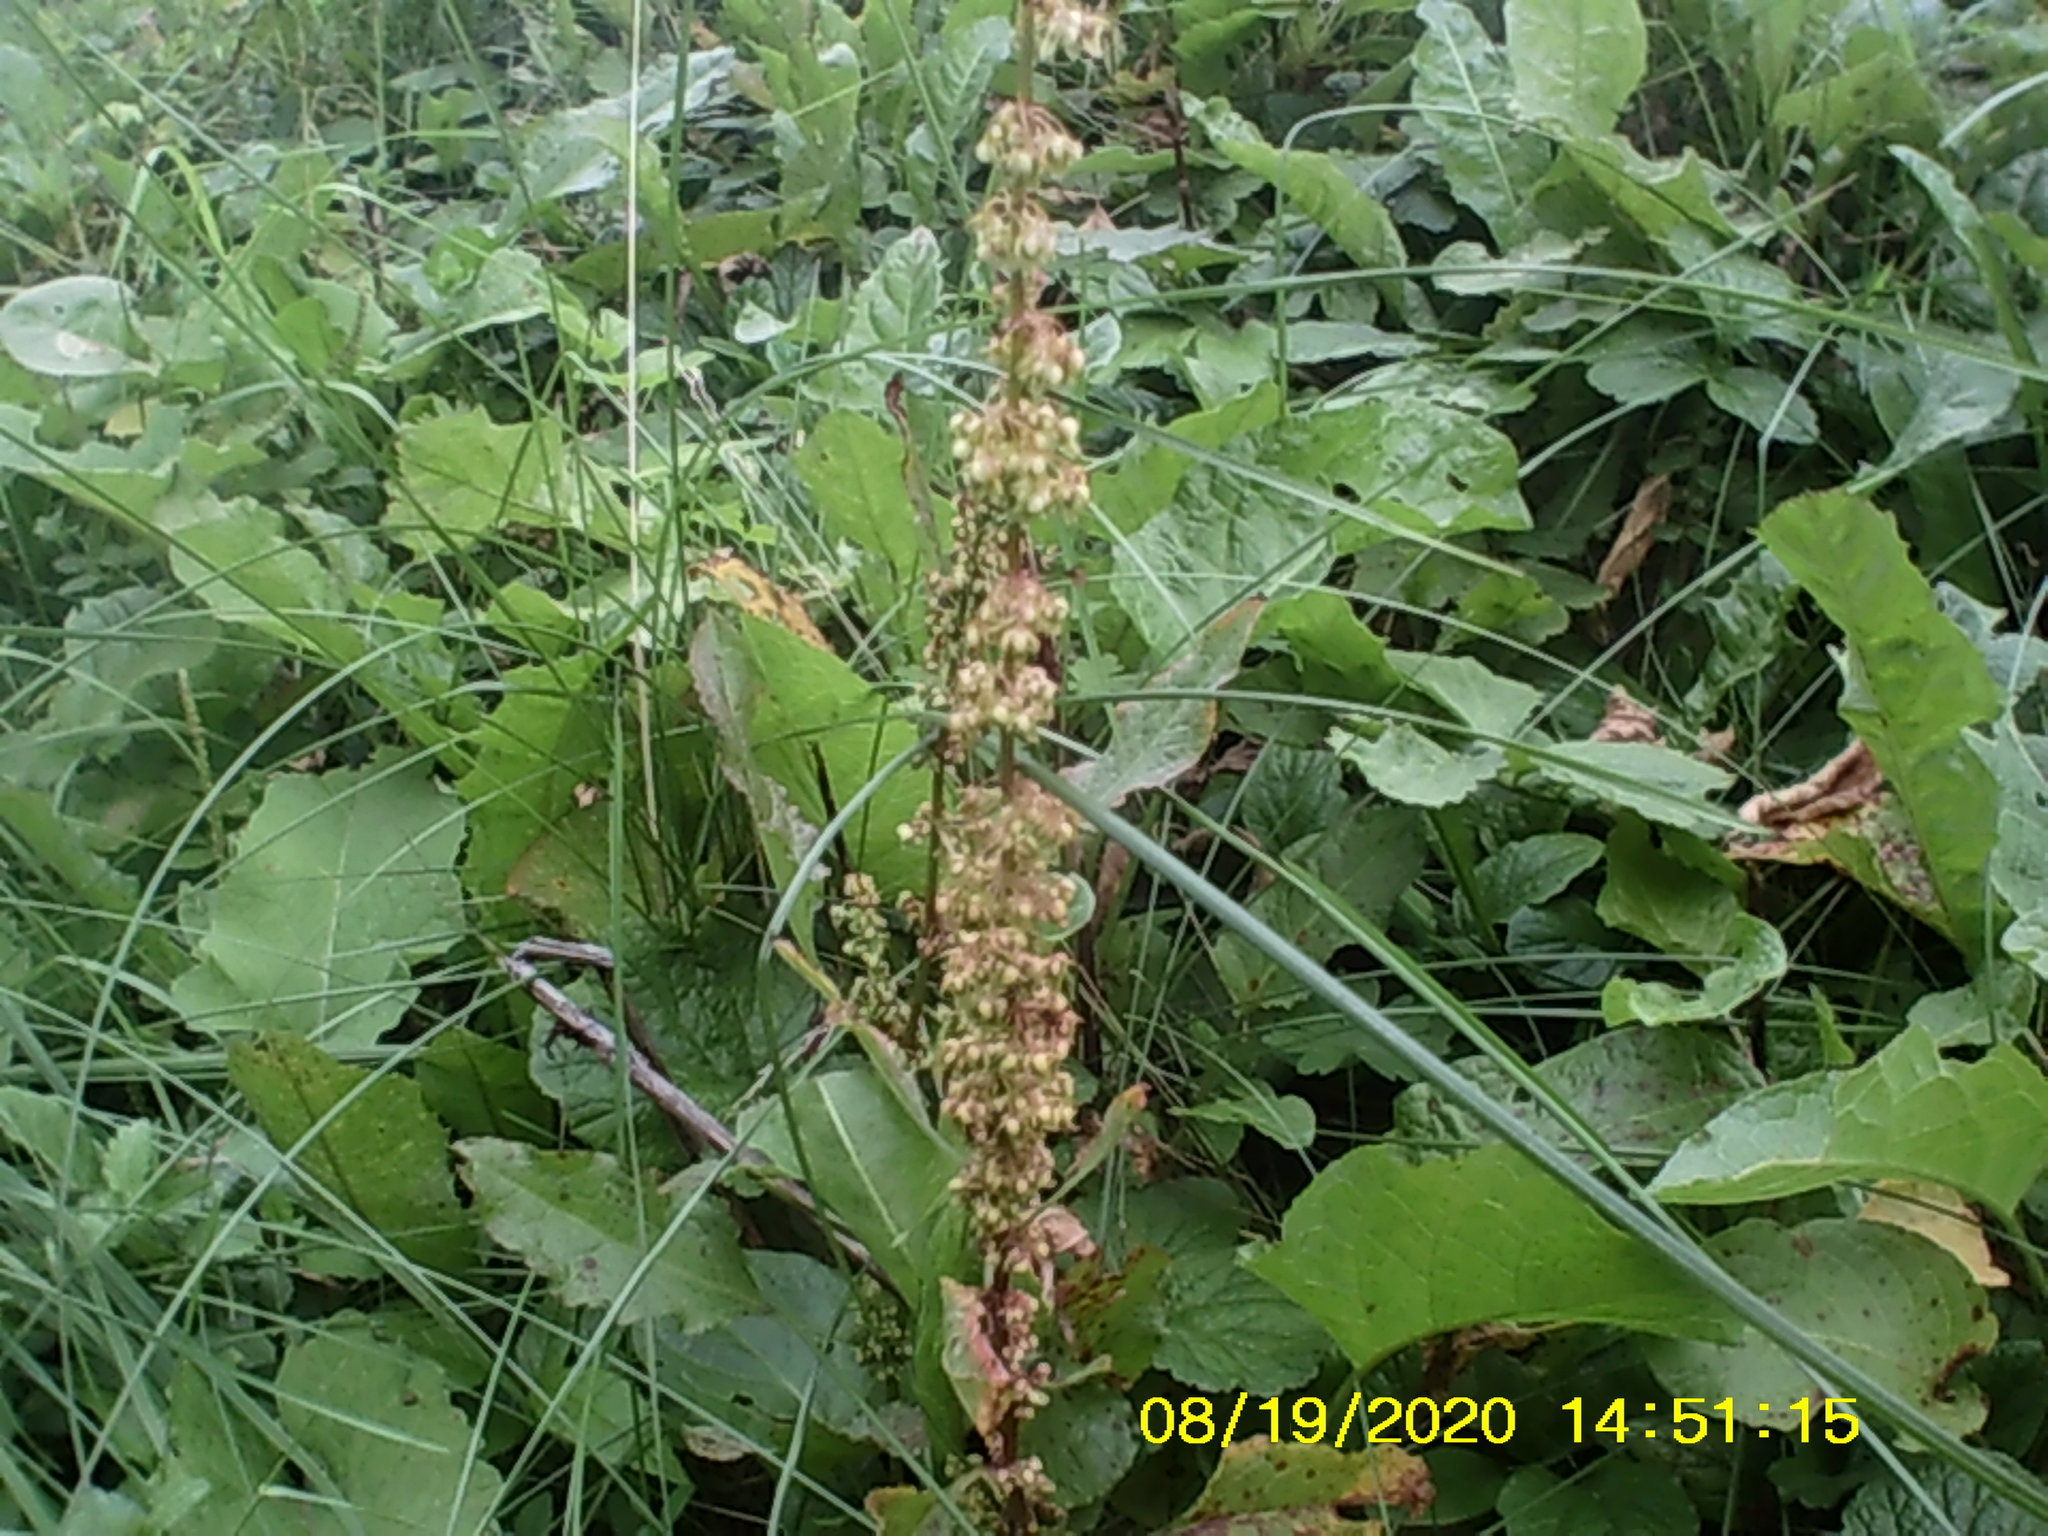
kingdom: Plantae
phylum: Tracheophyta
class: Magnoliopsida
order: Caryophyllales
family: Polygonaceae
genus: Rumex
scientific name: Rumex obtusifolius
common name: Bitter dock
